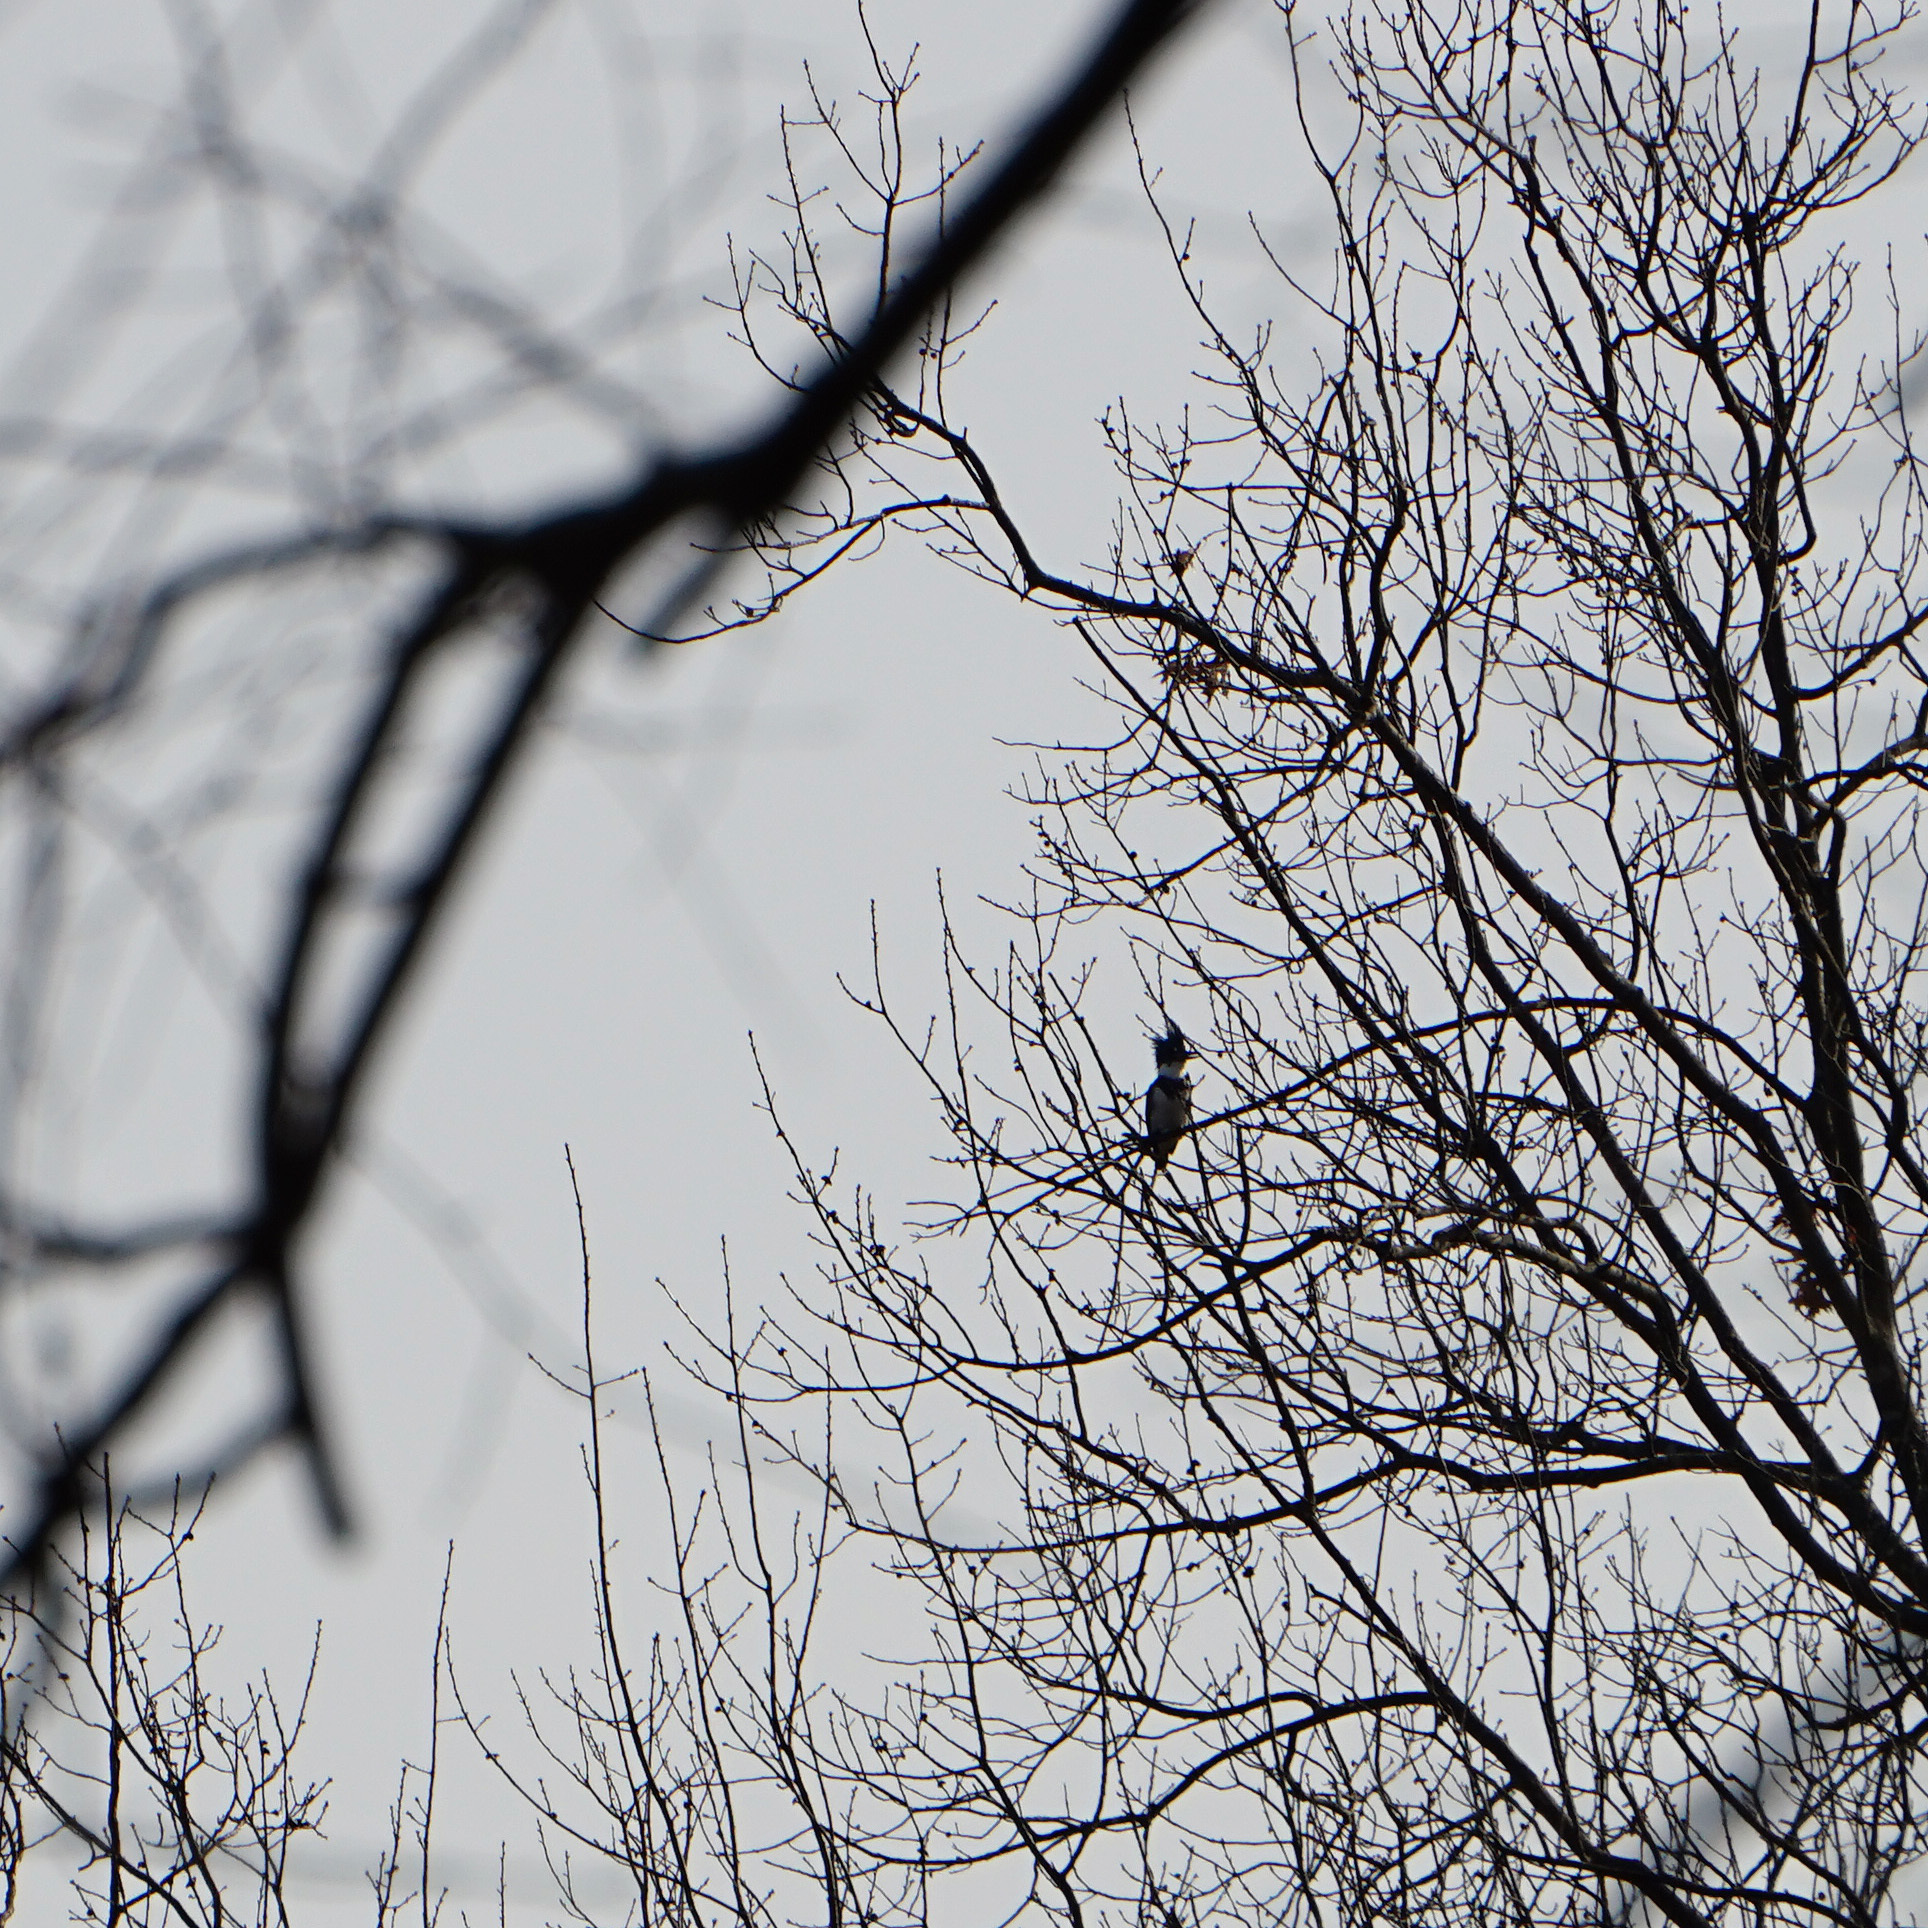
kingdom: Animalia
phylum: Chordata
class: Aves
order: Coraciiformes
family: Alcedinidae
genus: Megaceryle
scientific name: Megaceryle alcyon
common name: Belted kingfisher
